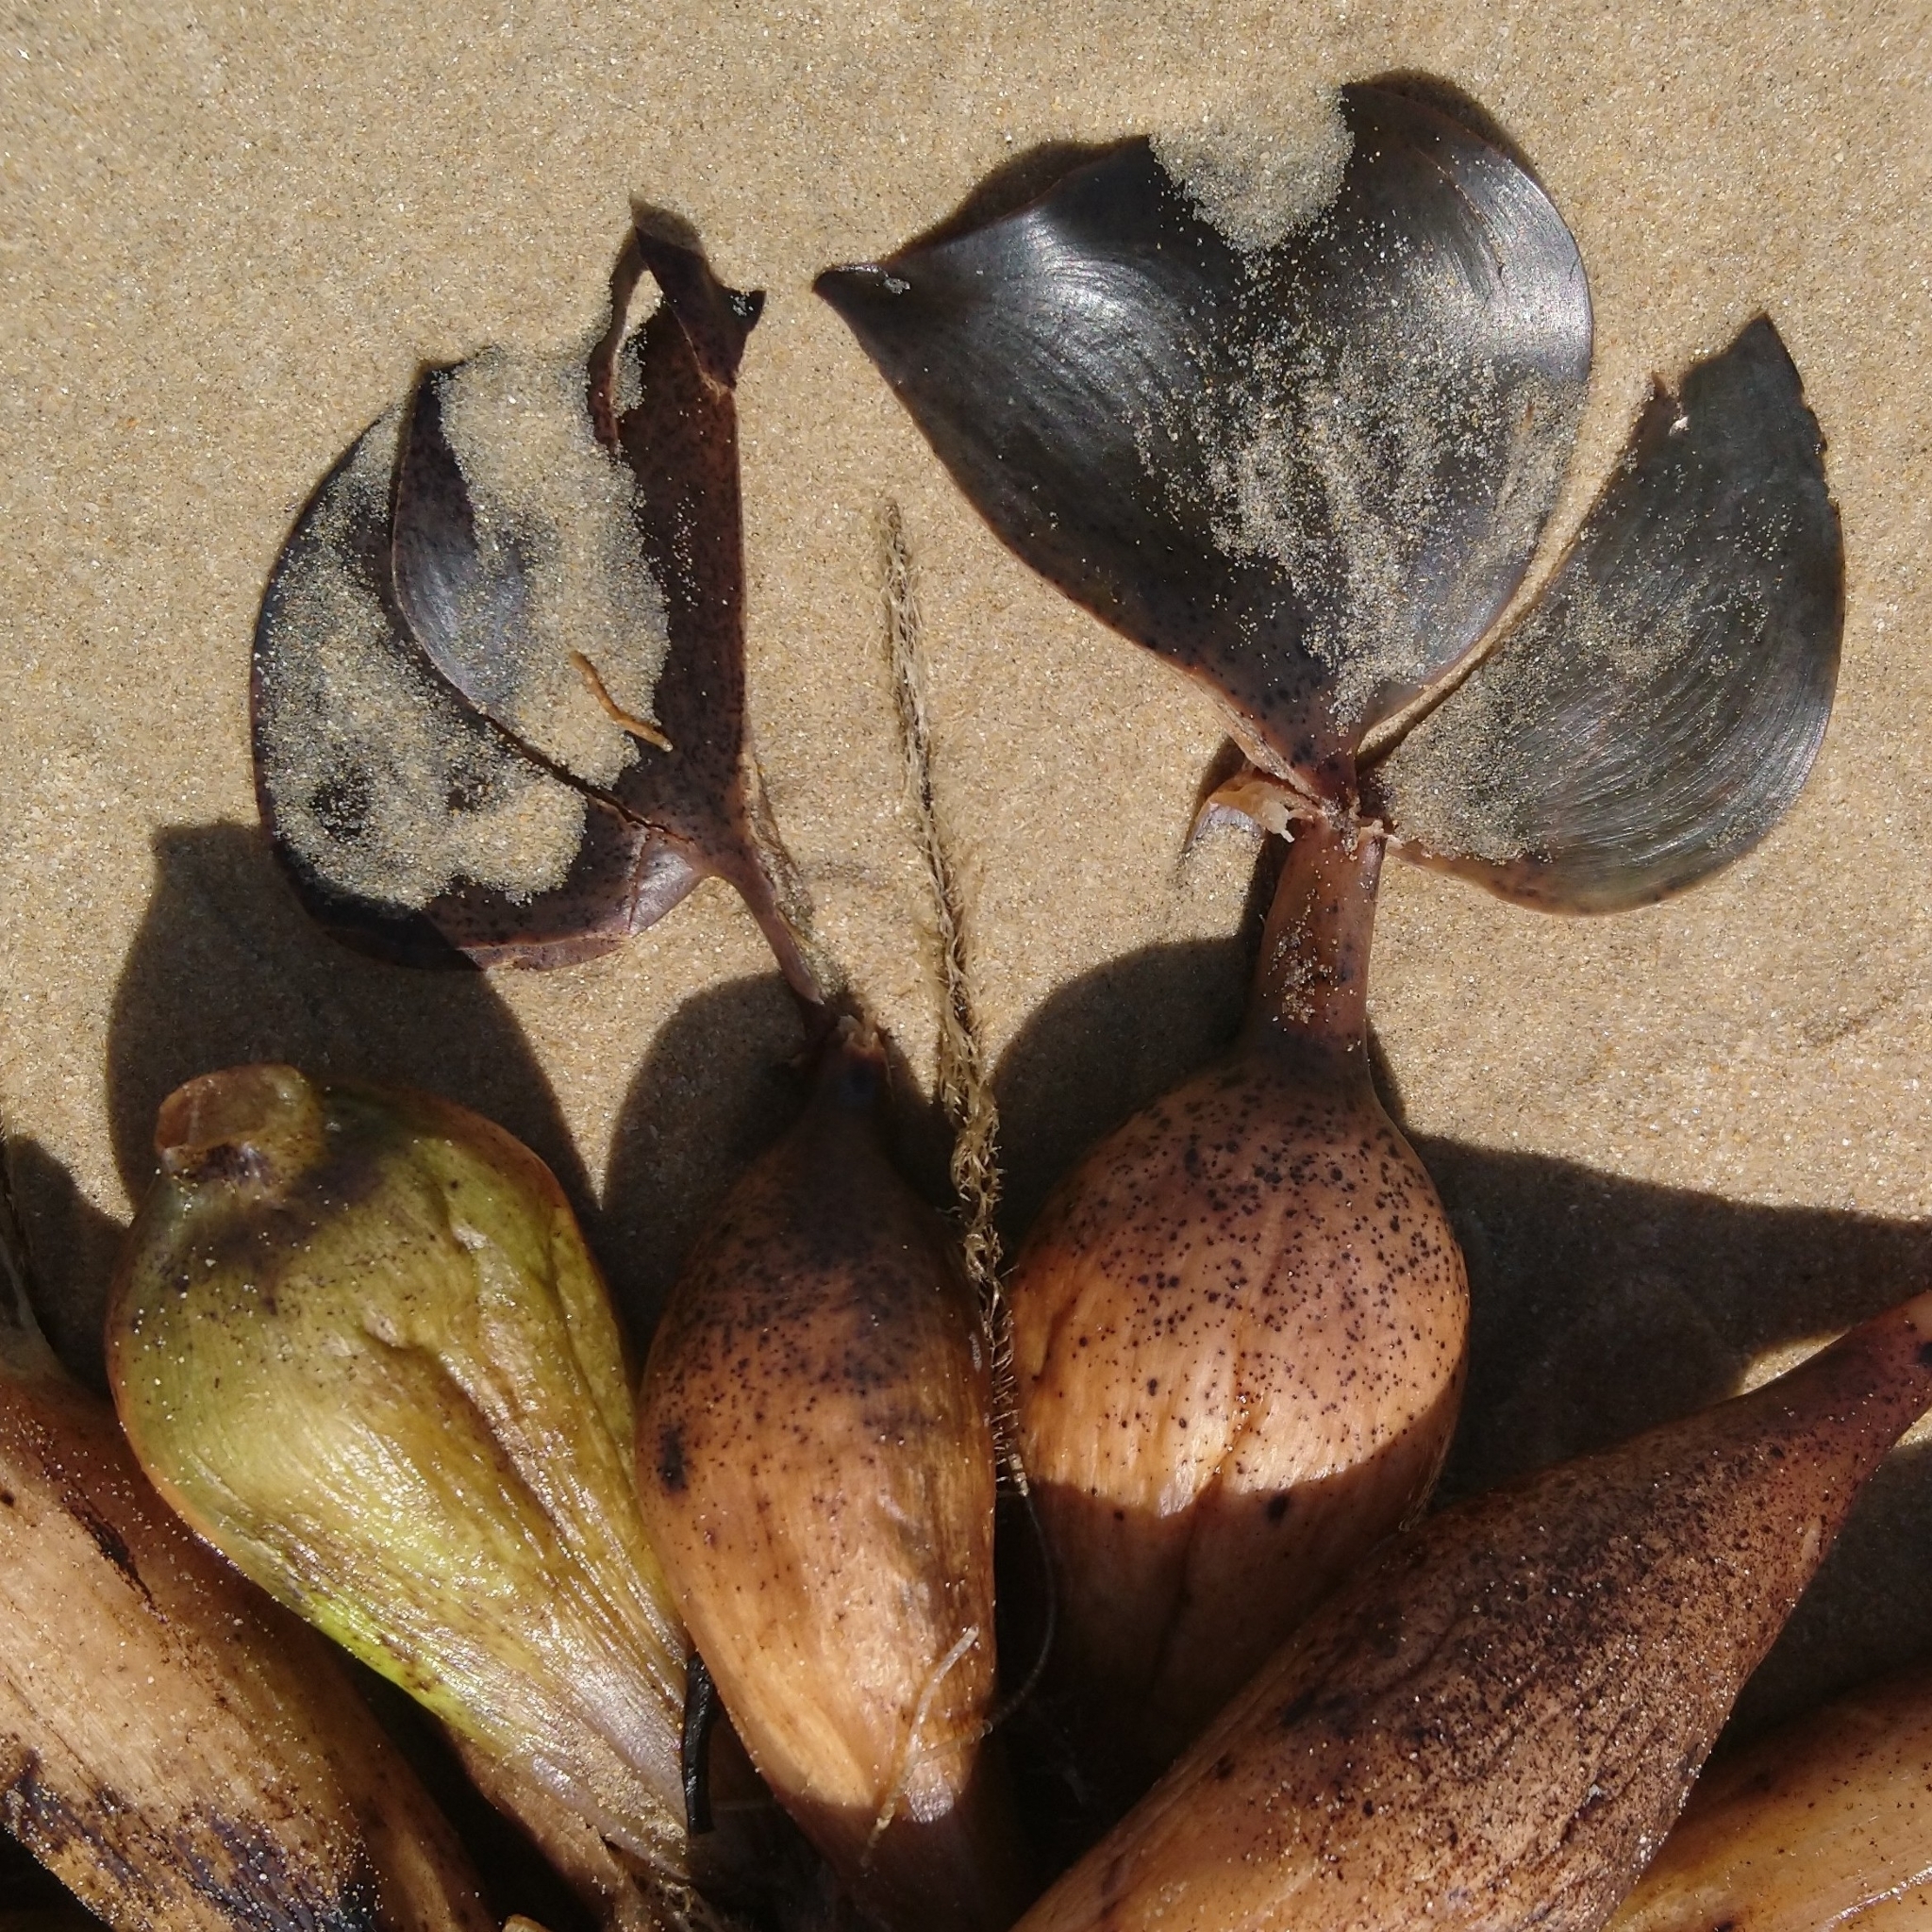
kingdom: Plantae
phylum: Tracheophyta
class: Liliopsida
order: Commelinales
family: Pontederiaceae
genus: Pontederia
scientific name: Pontederia crassipes
